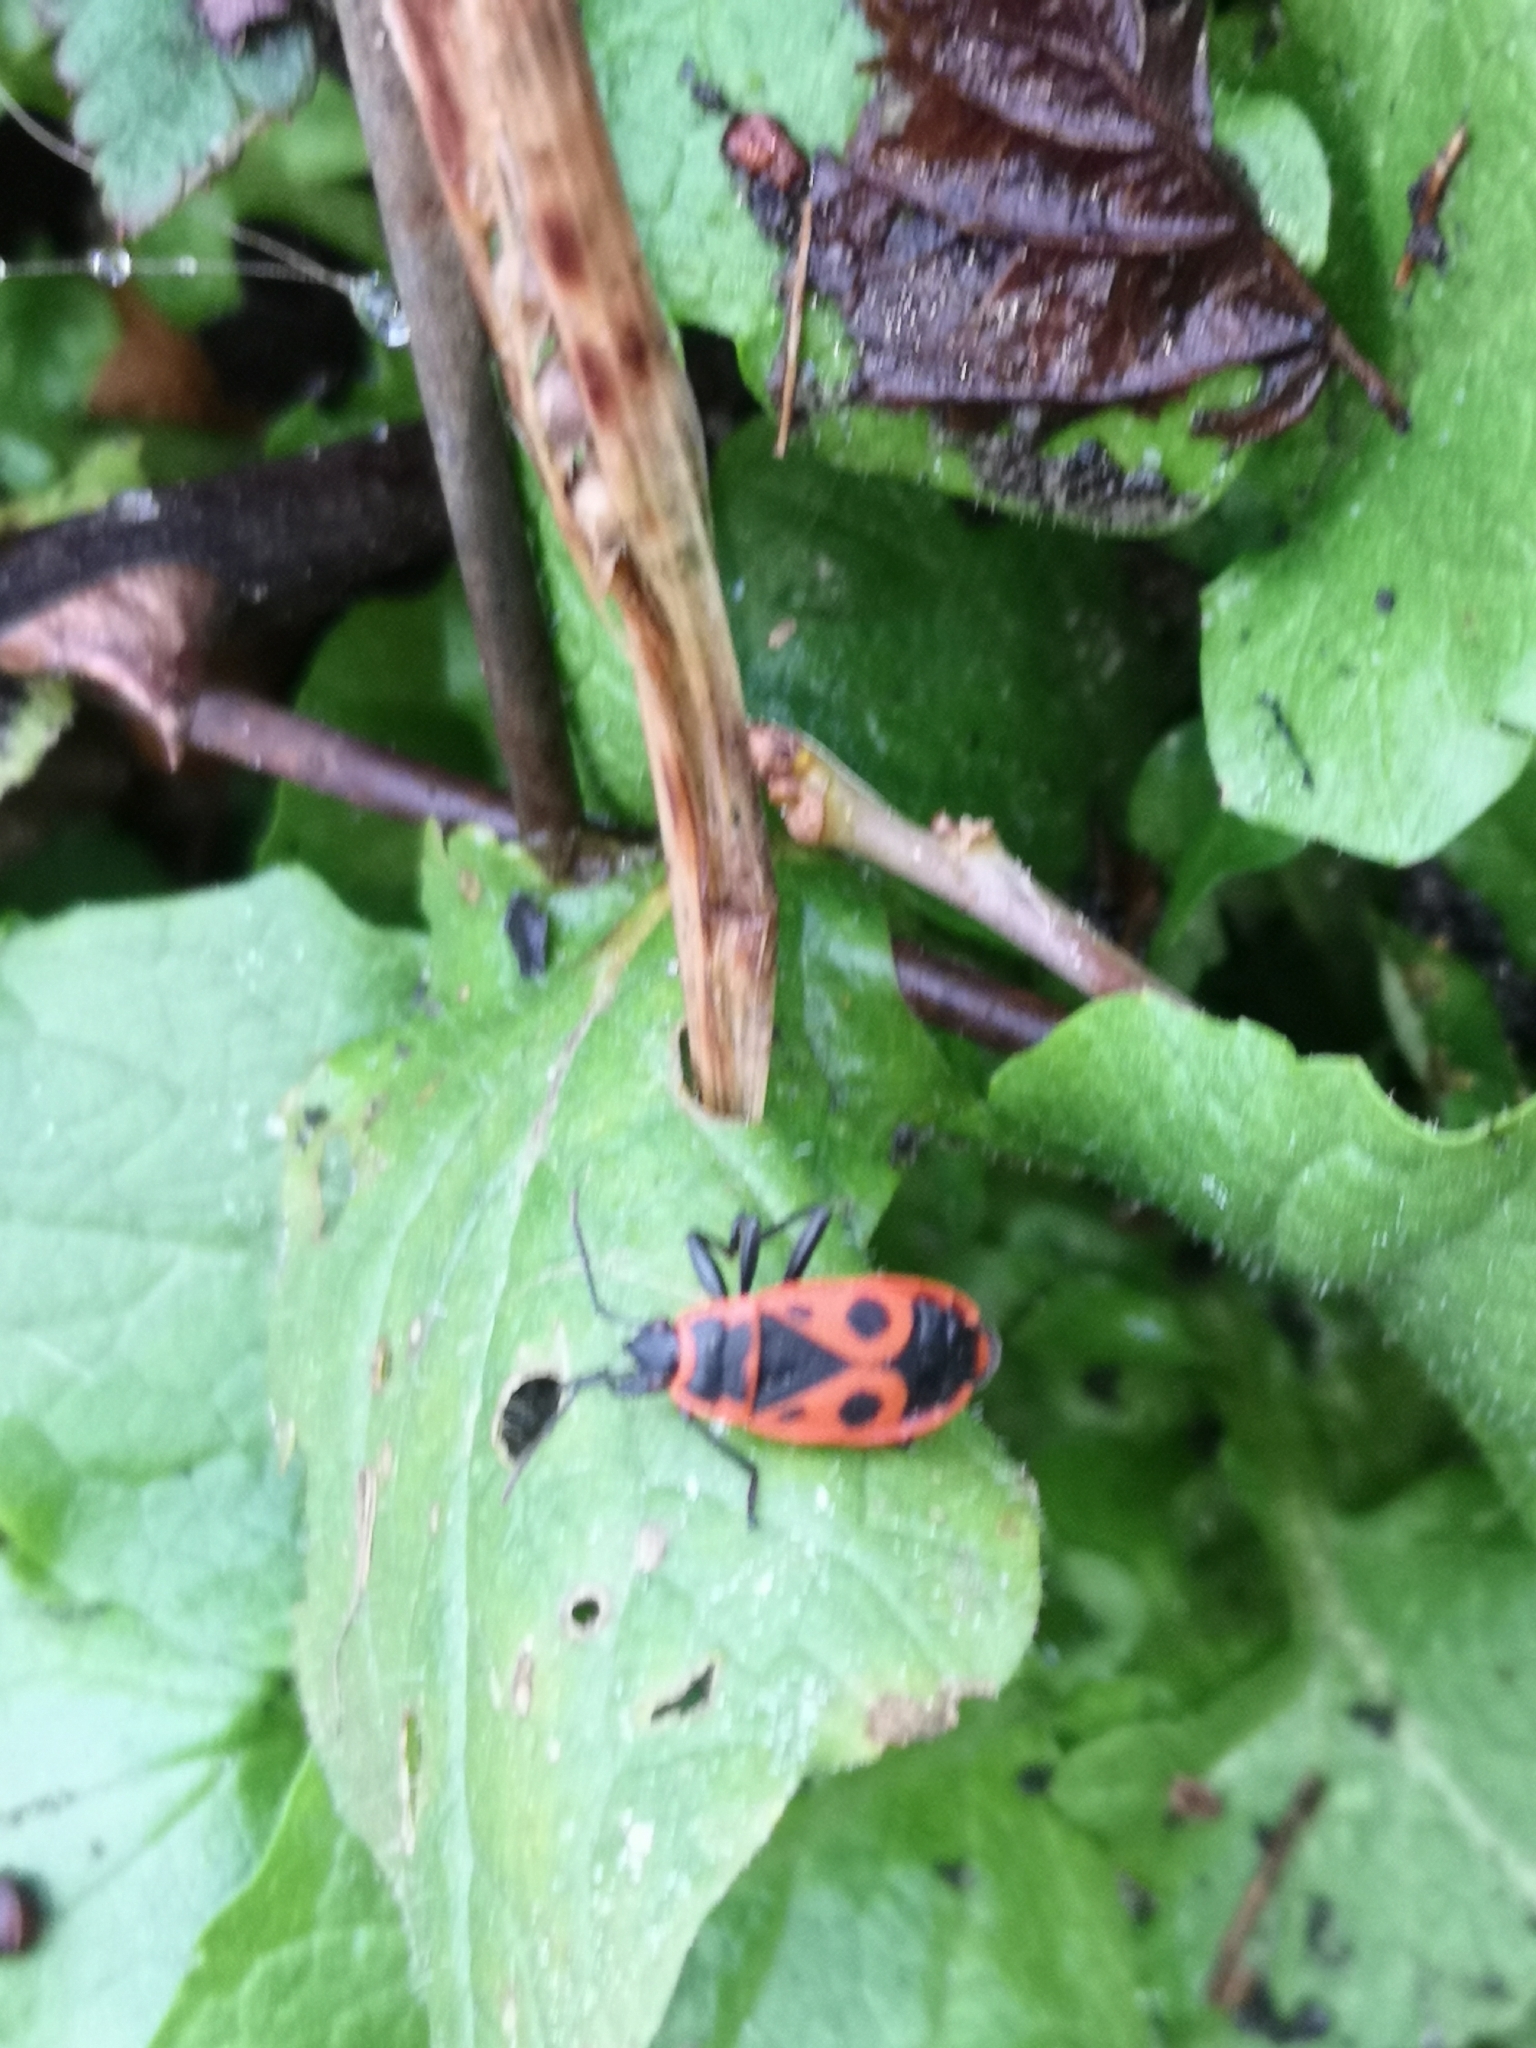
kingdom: Animalia
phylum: Arthropoda
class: Insecta
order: Hemiptera
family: Pyrrhocoridae
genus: Pyrrhocoris
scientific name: Pyrrhocoris apterus
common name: Firebug
